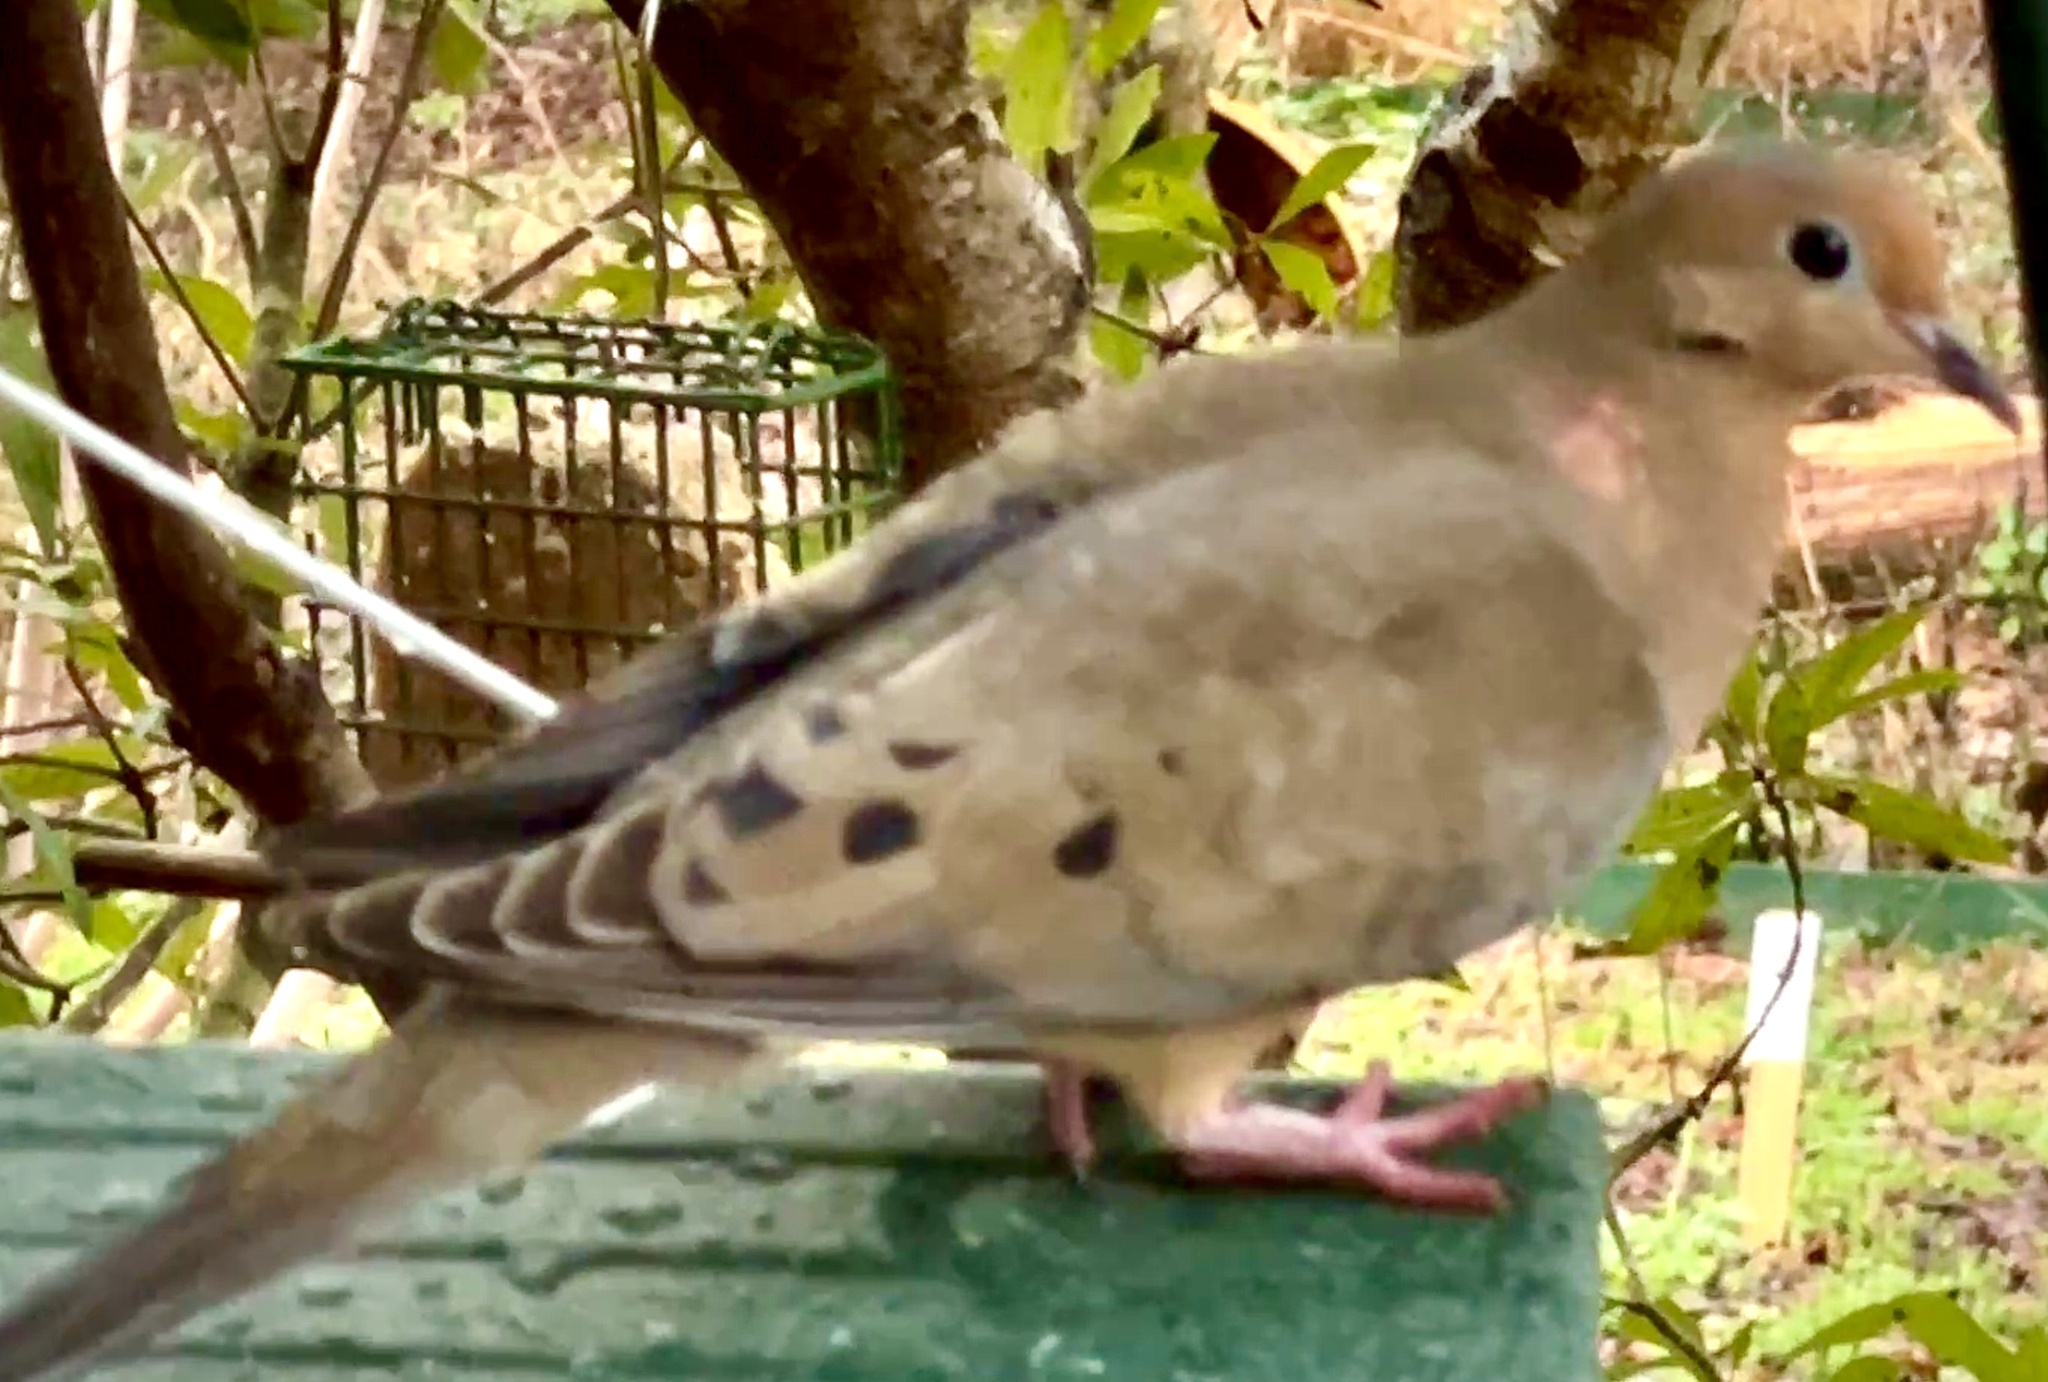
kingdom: Animalia
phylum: Chordata
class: Aves
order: Columbiformes
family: Columbidae
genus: Zenaida
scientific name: Zenaida macroura
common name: Mourning dove
